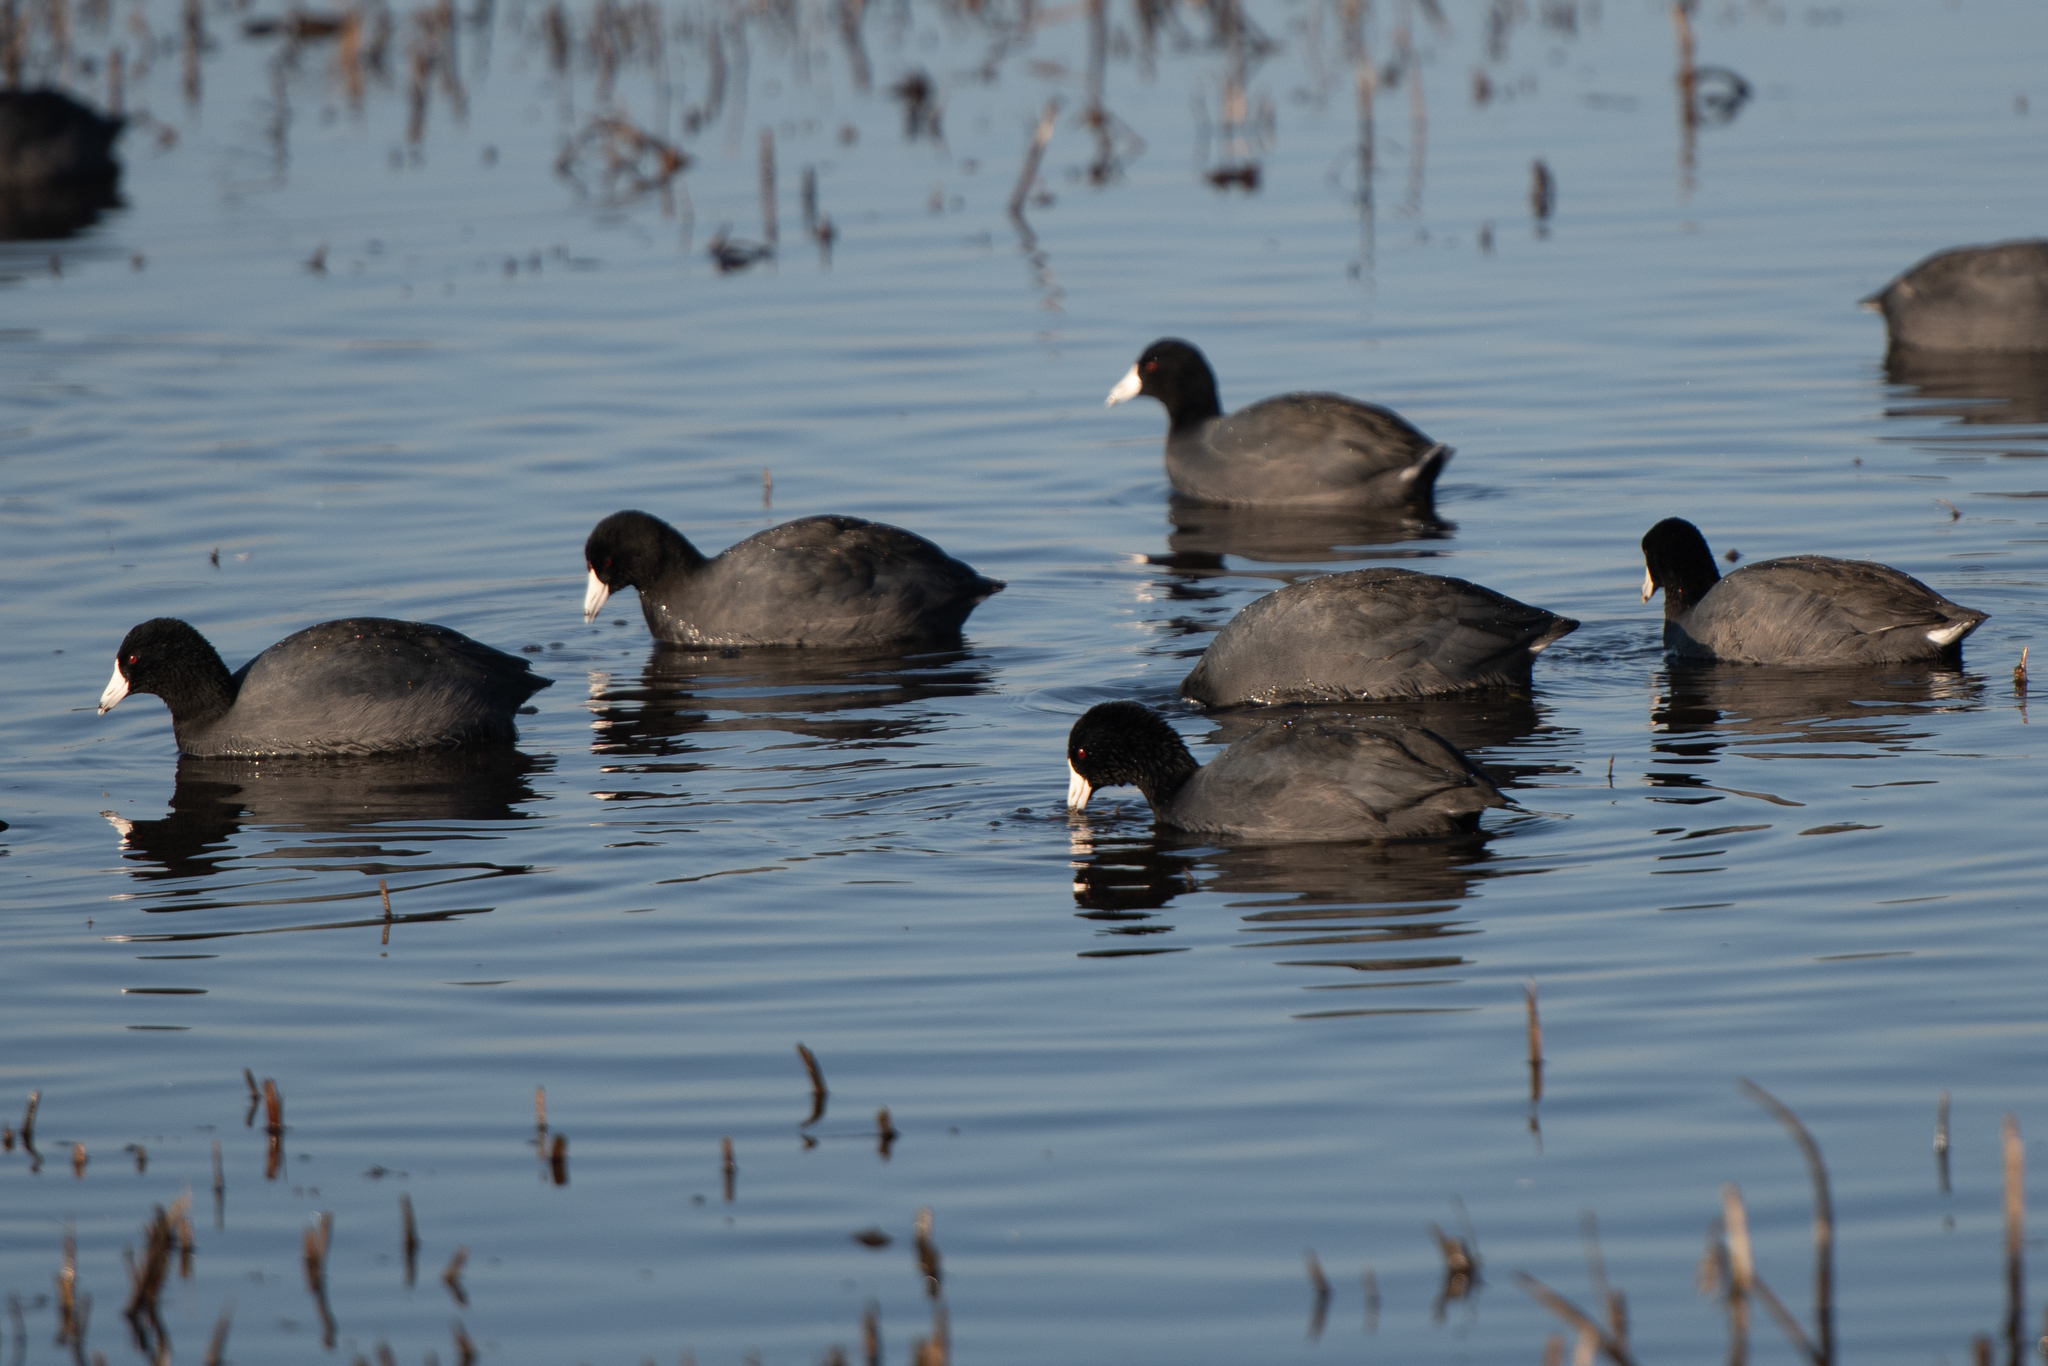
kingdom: Animalia
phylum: Chordata
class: Aves
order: Gruiformes
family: Rallidae
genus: Fulica
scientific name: Fulica americana
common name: American coot
